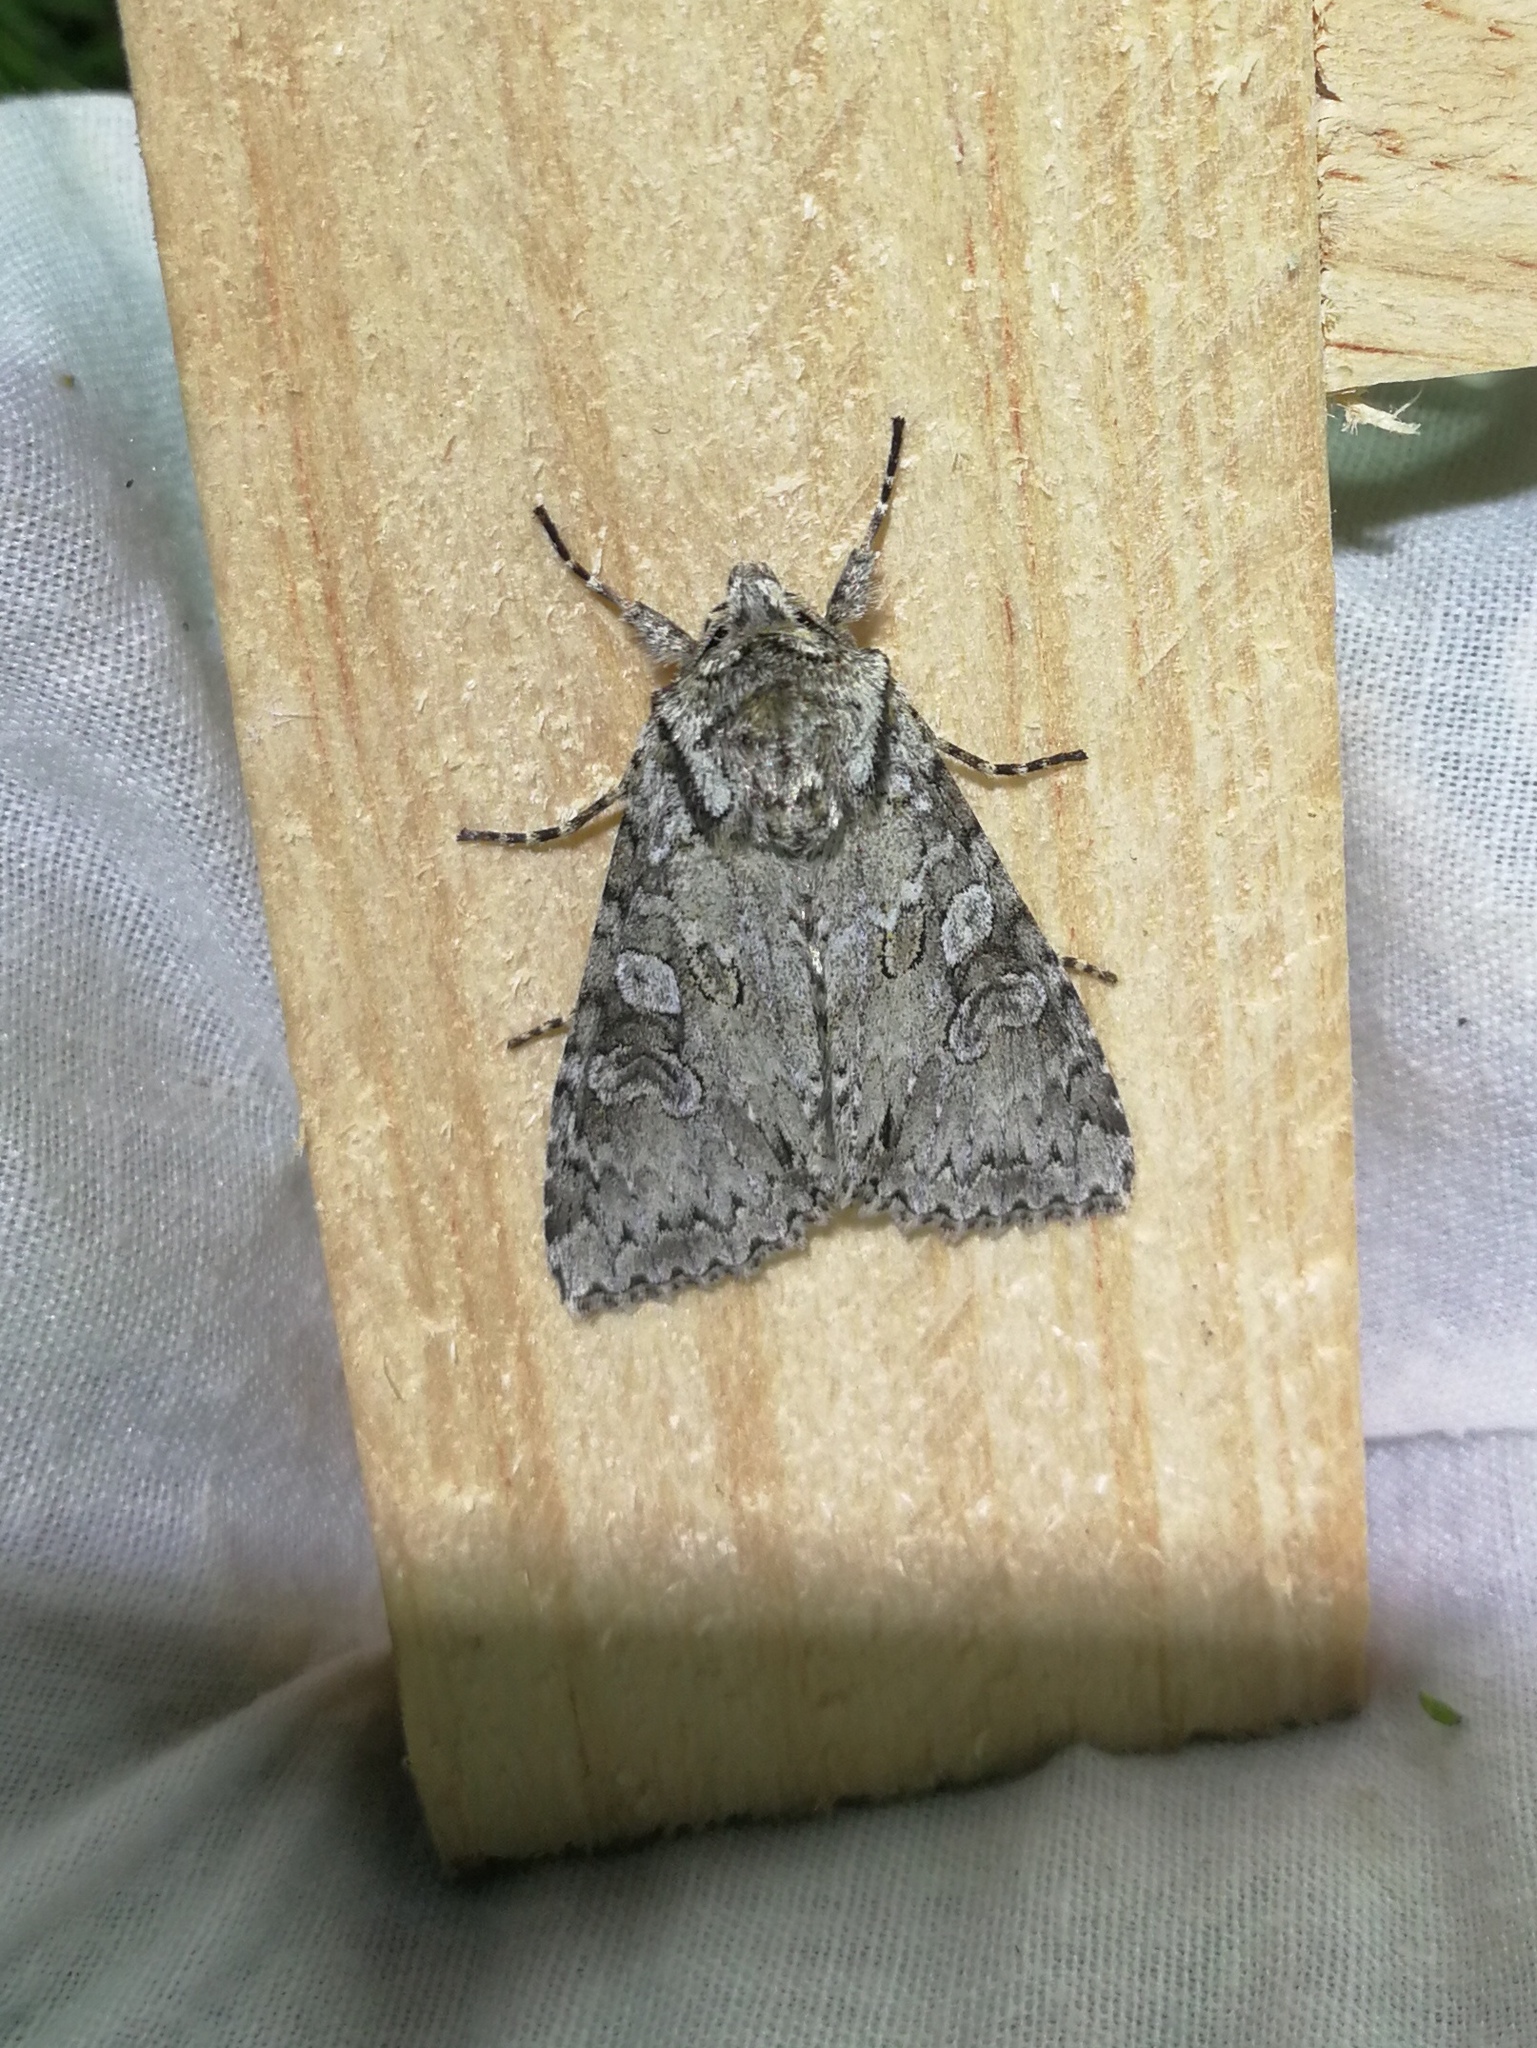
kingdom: Animalia
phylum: Arthropoda
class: Insecta
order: Lepidoptera
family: Noctuidae
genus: Polia
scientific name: Polia nebulosa
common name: Grey arches
